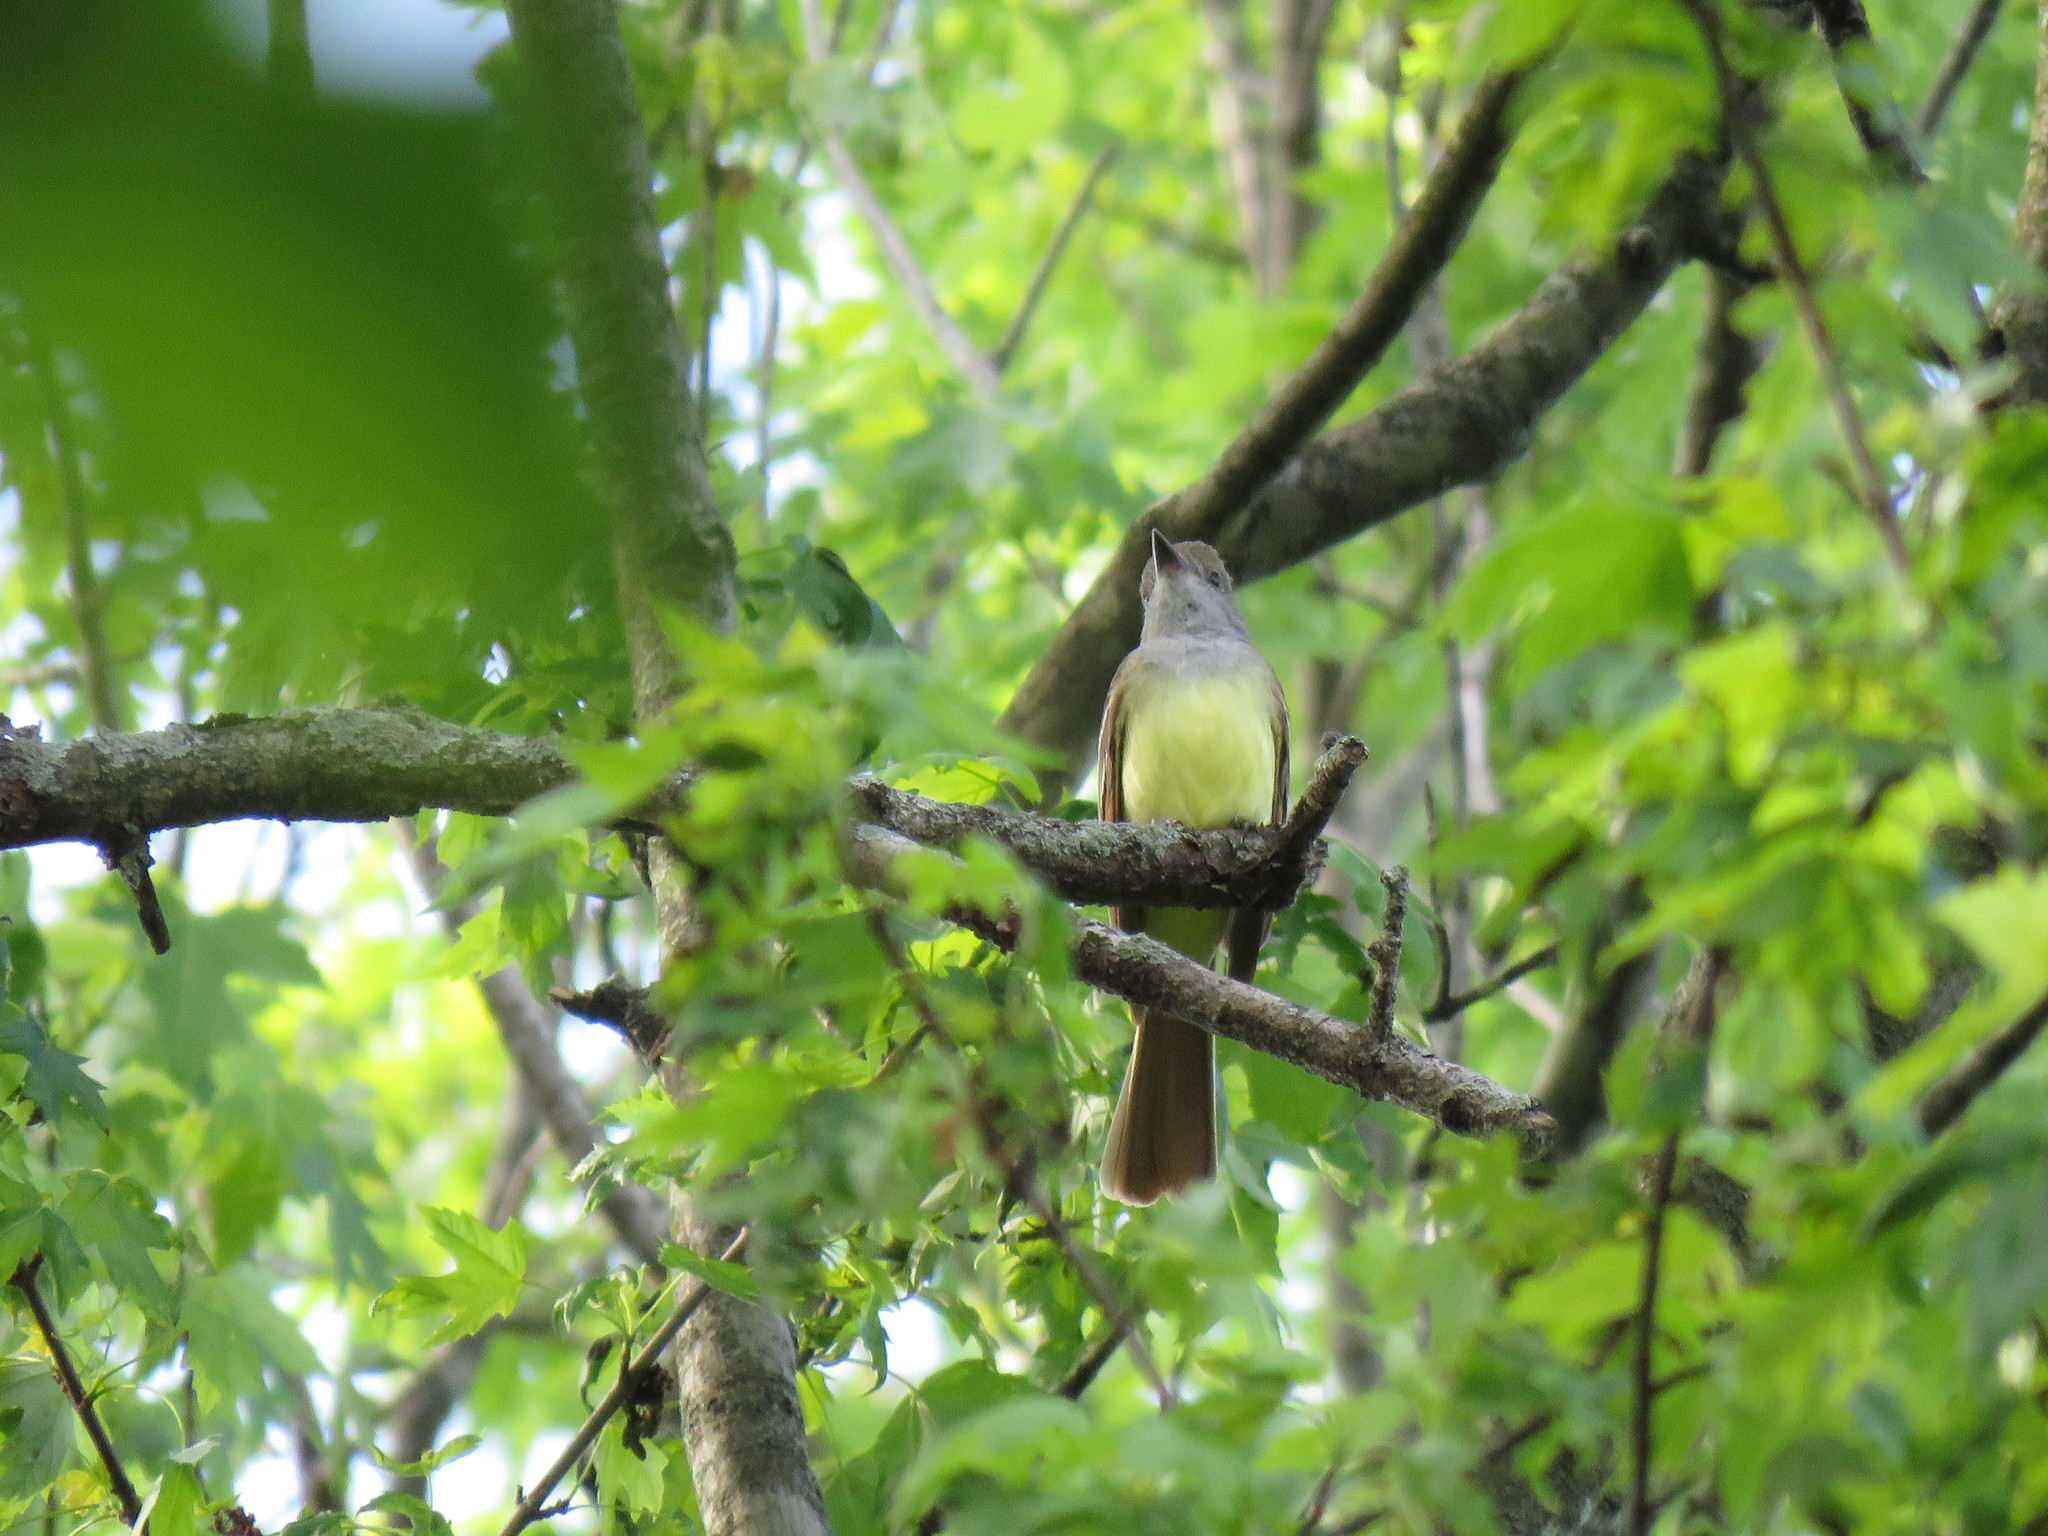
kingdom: Animalia
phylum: Chordata
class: Aves
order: Passeriformes
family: Tyrannidae
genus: Myiarchus
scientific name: Myiarchus crinitus
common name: Great crested flycatcher
